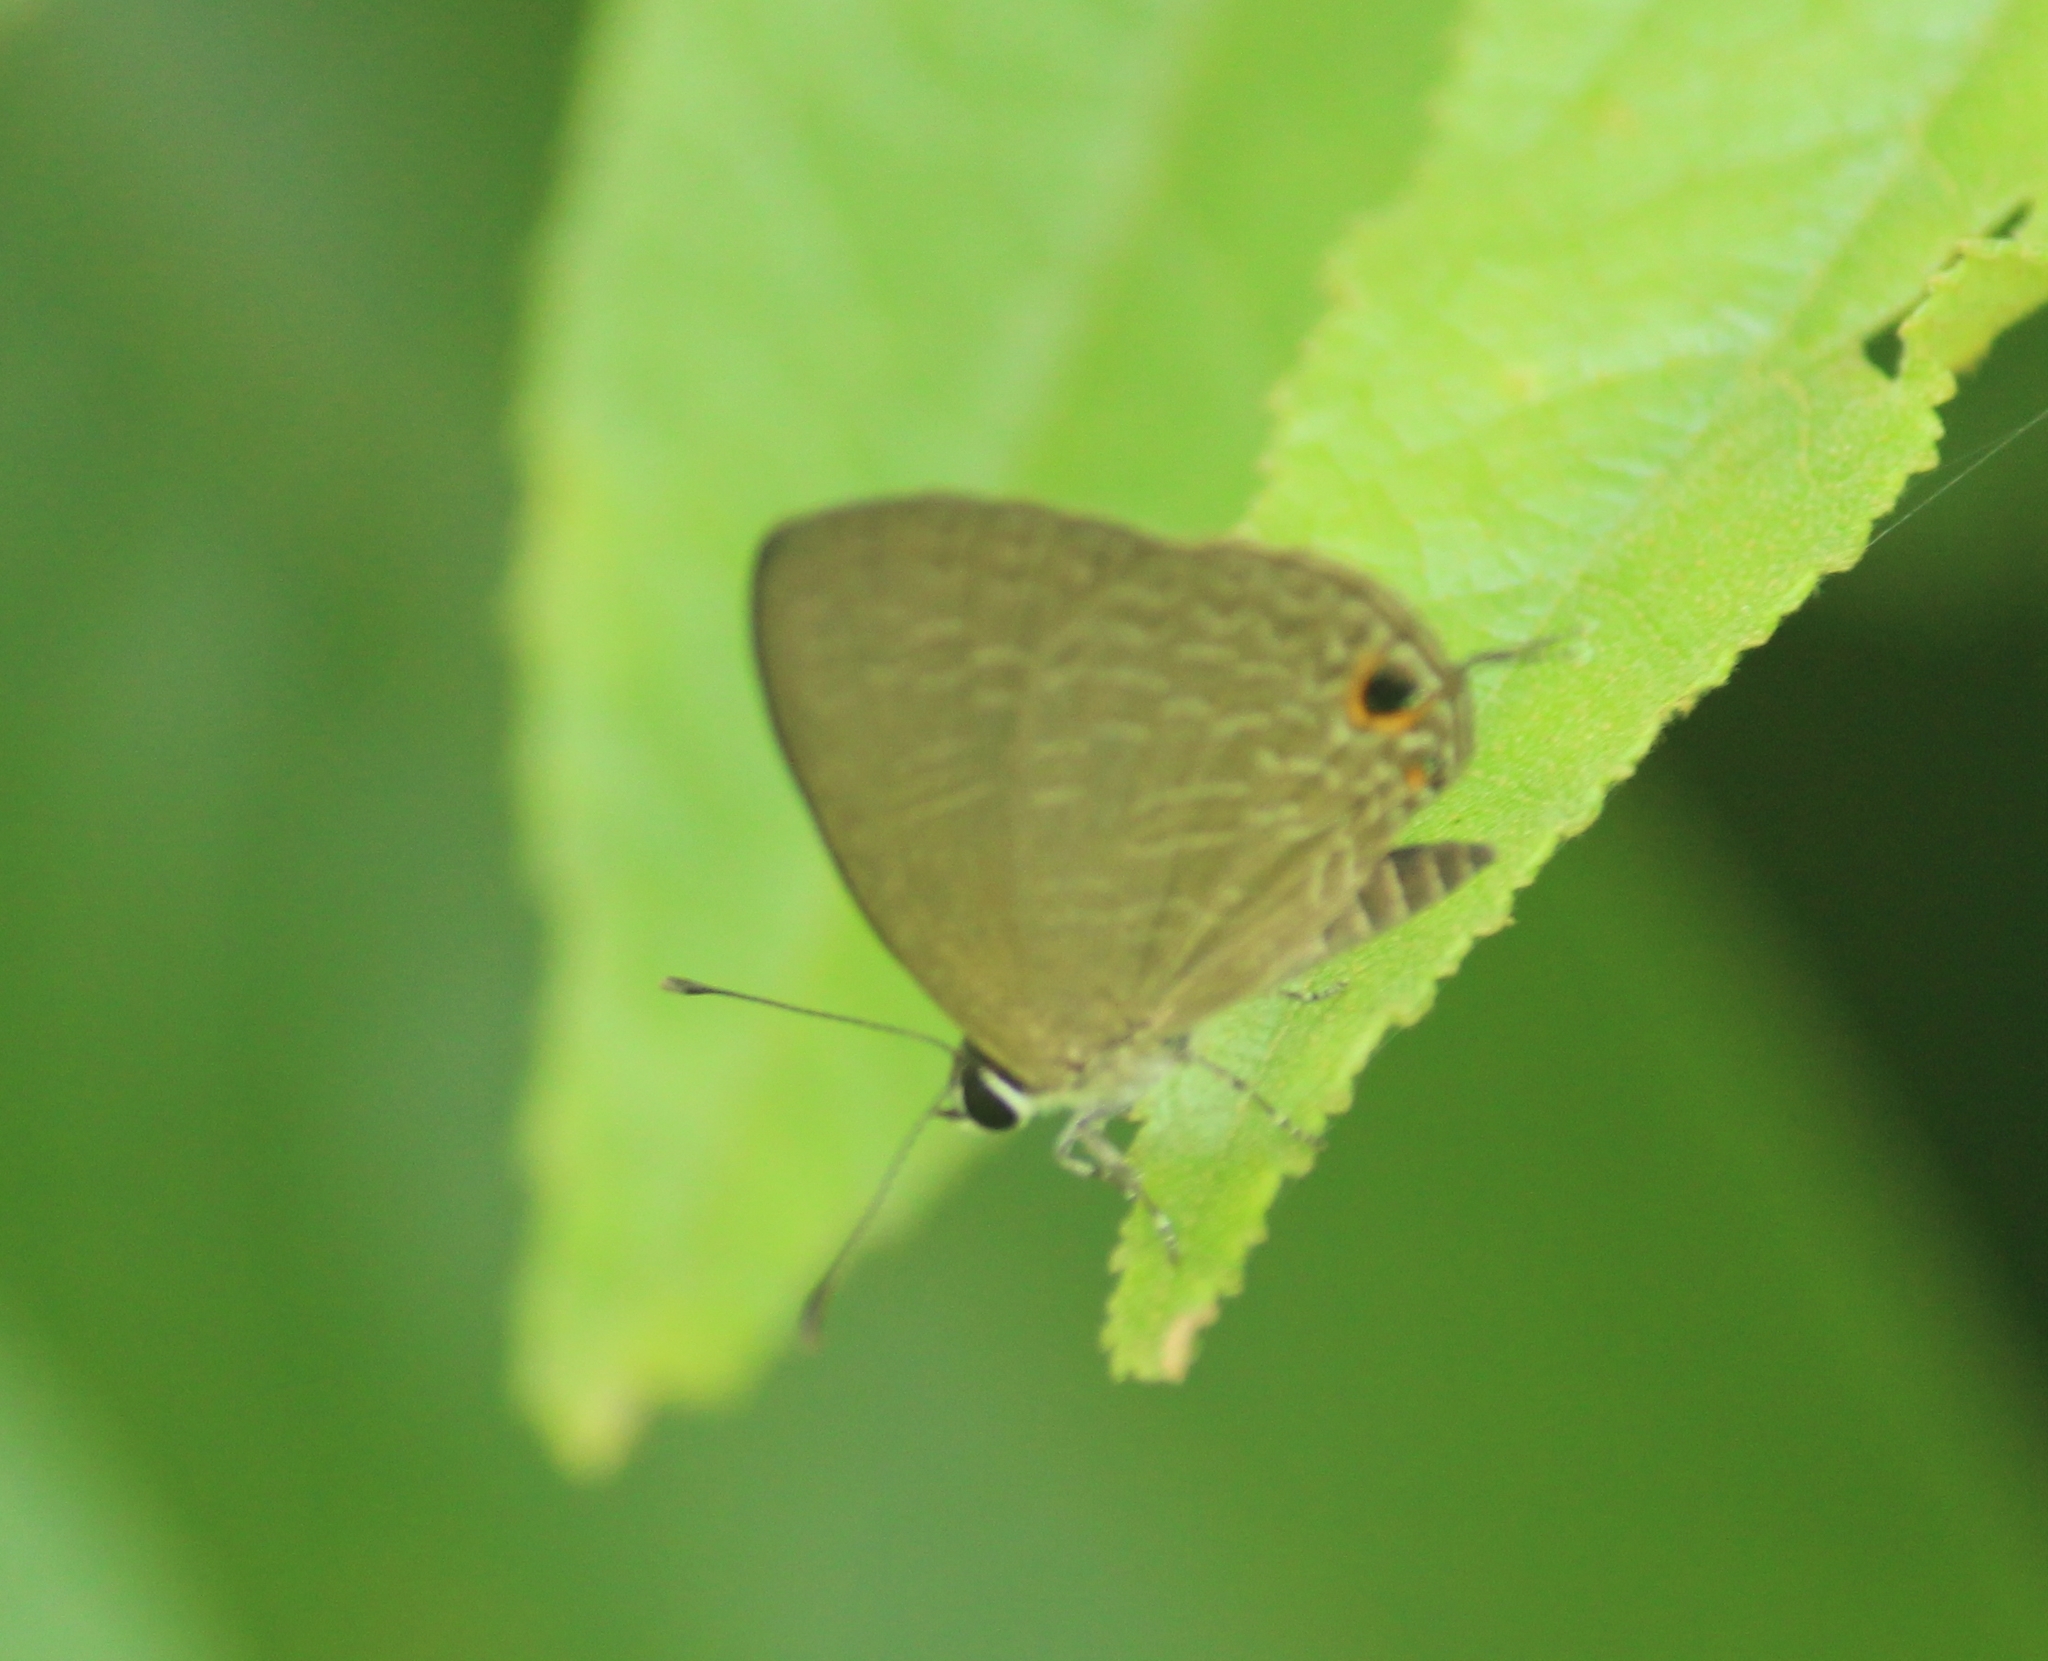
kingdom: Animalia
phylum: Arthropoda
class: Insecta
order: Lepidoptera
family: Lycaenidae
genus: Jamides
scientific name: Jamides bochus
